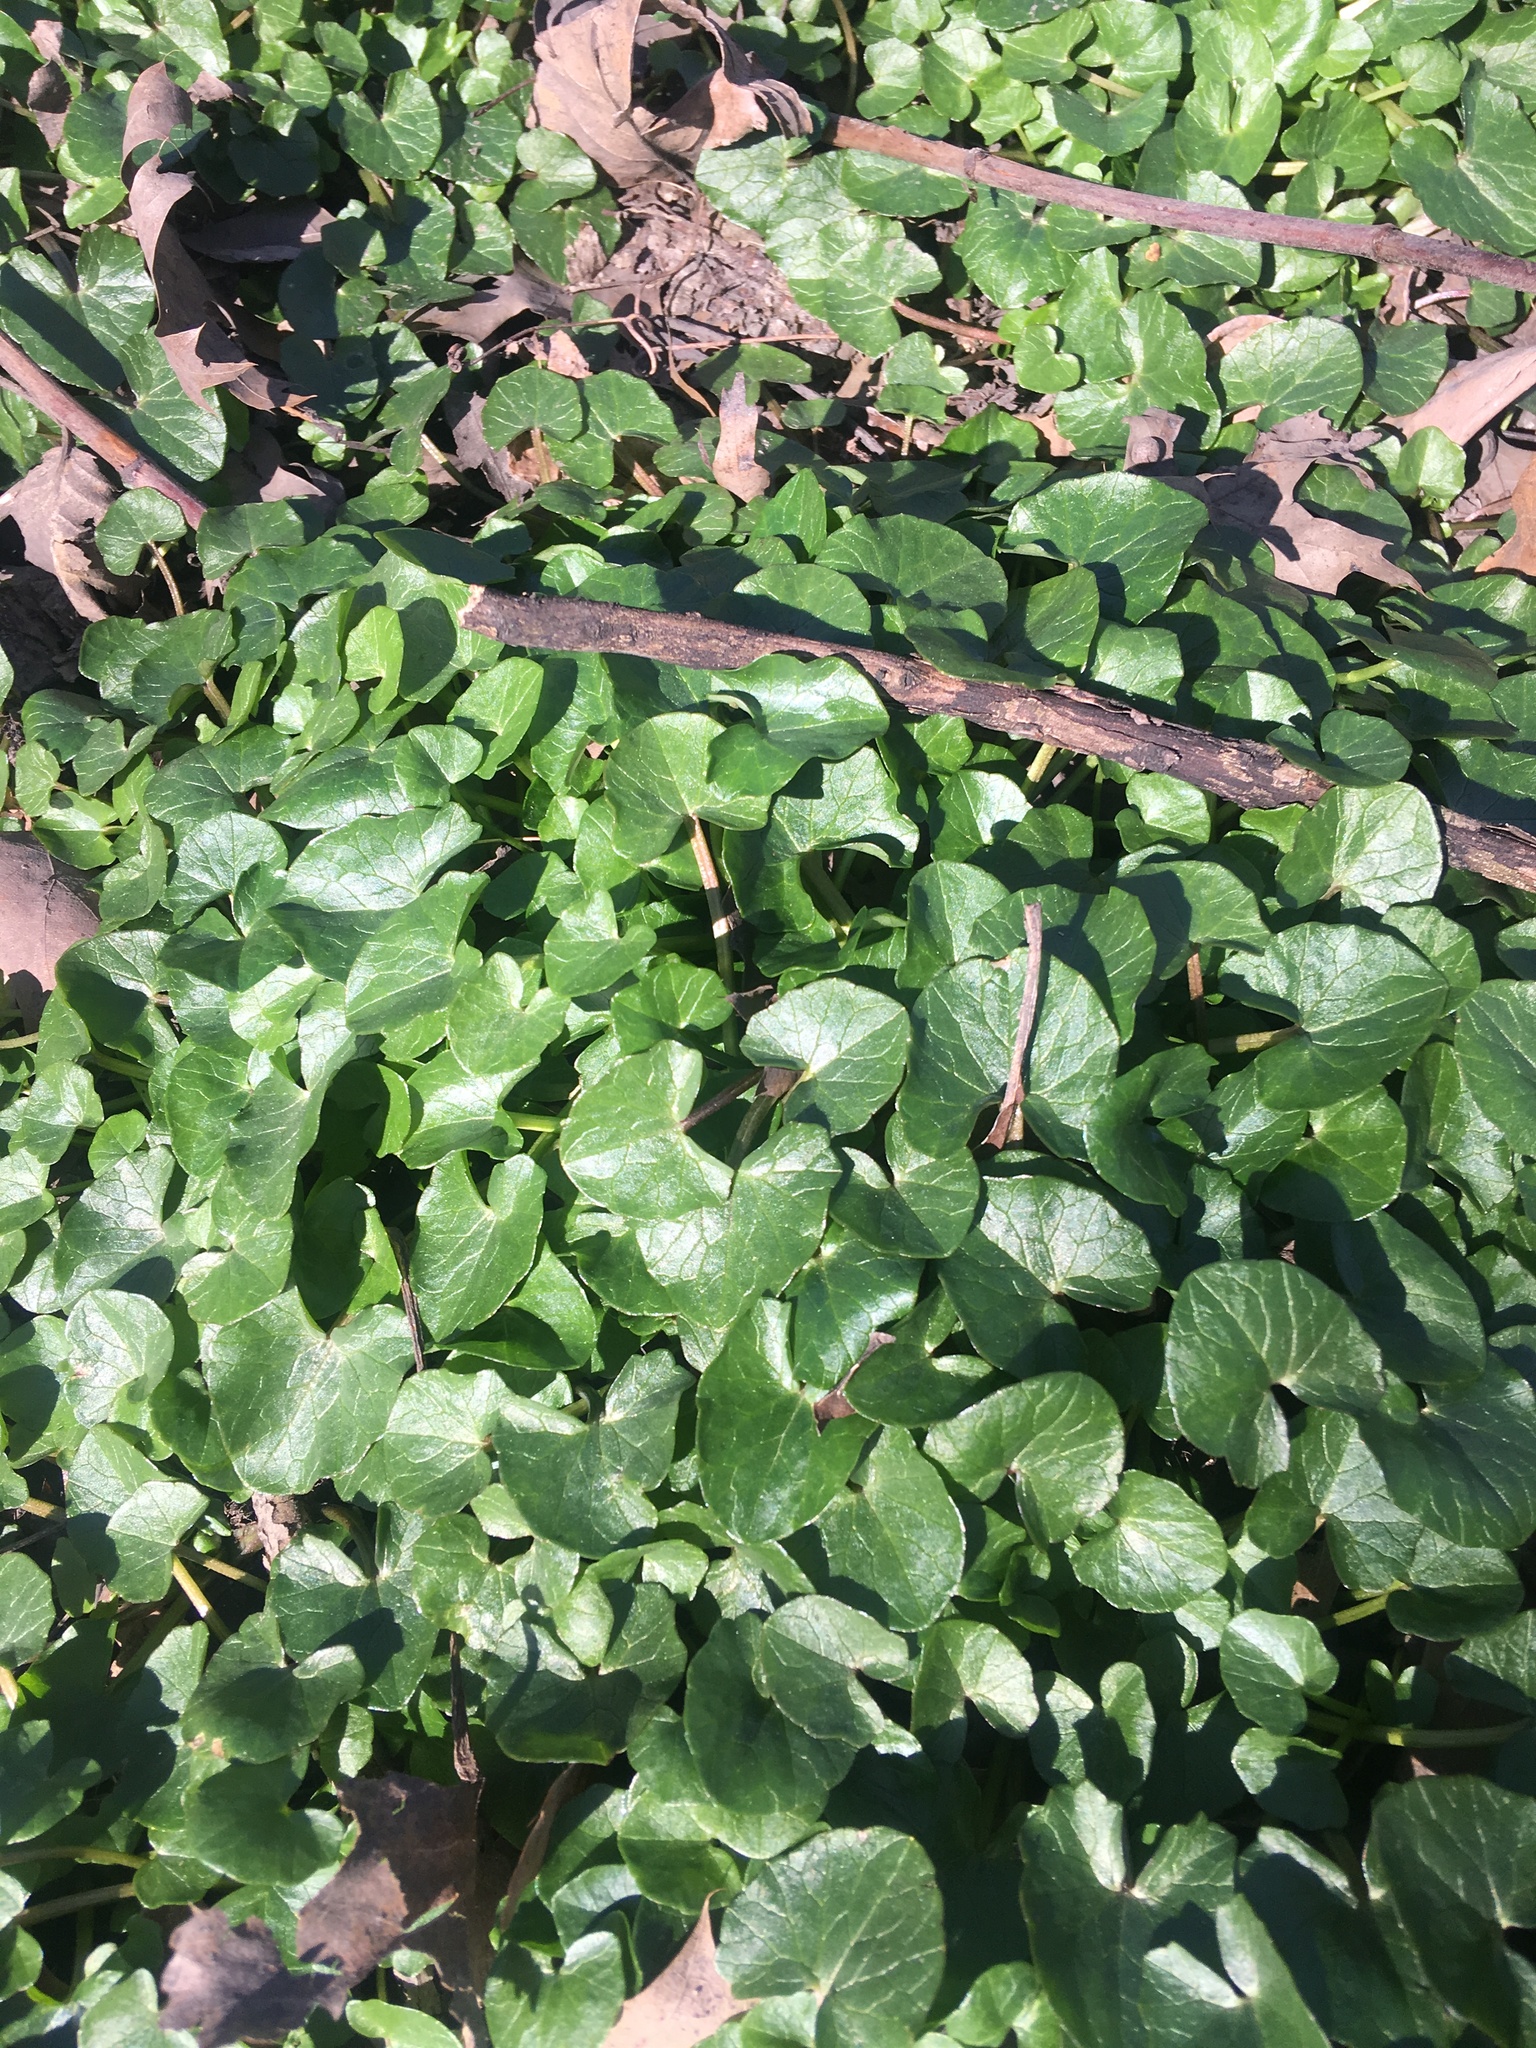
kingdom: Plantae
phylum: Tracheophyta
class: Magnoliopsida
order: Ranunculales
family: Ranunculaceae
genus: Ficaria
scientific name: Ficaria verna
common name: Lesser celandine
